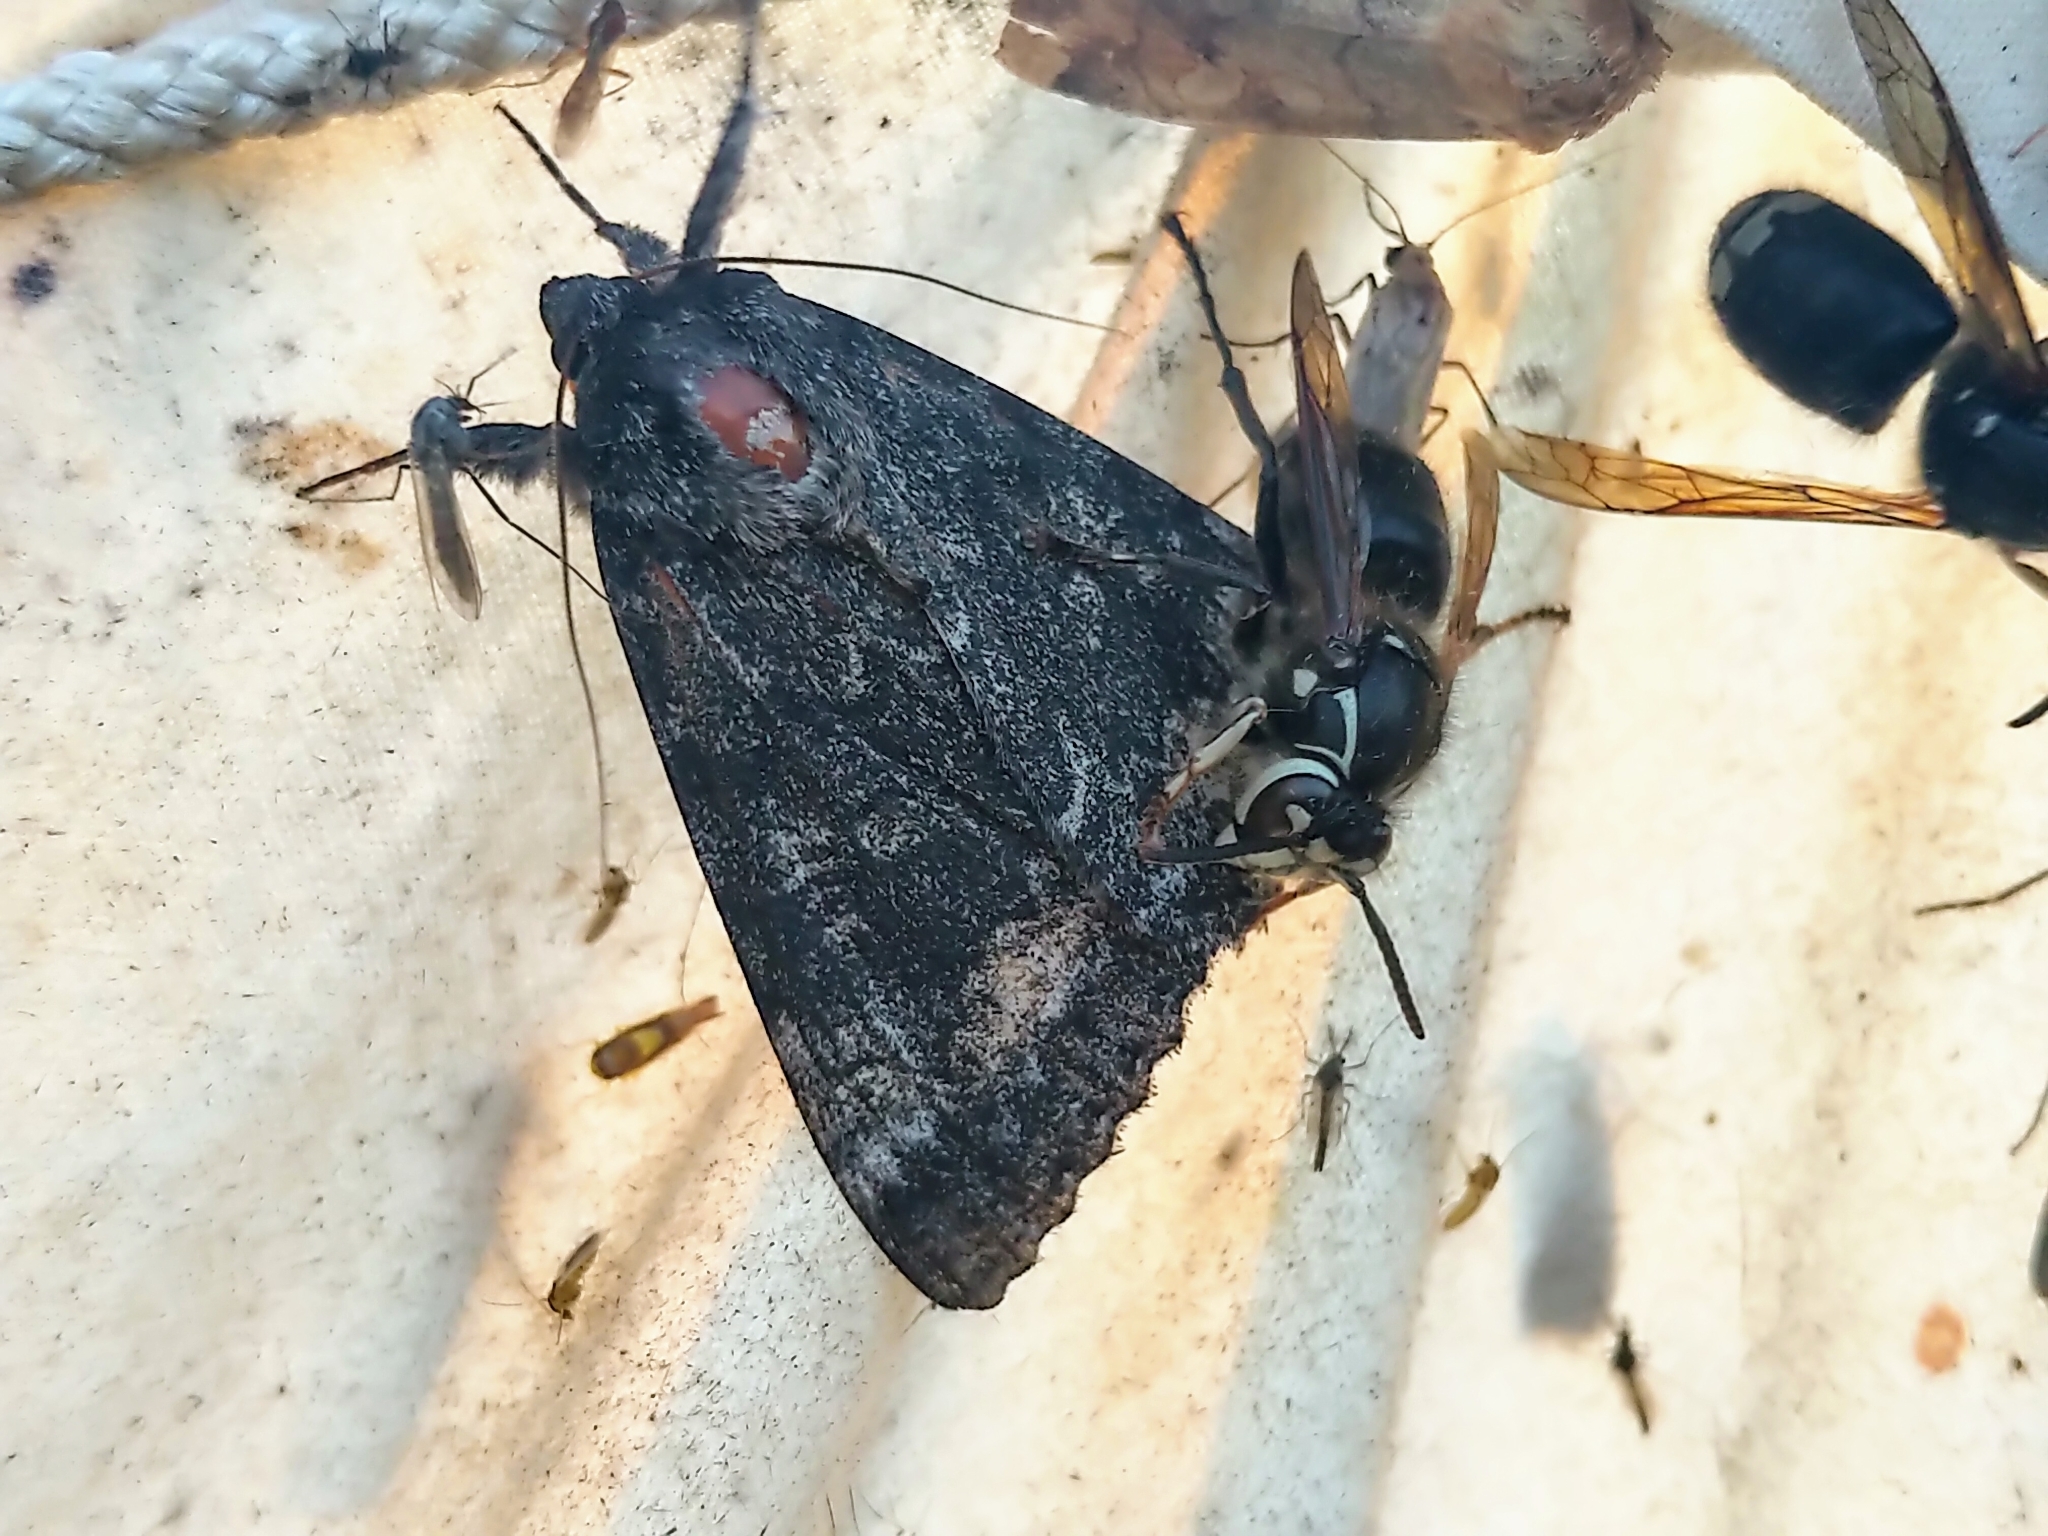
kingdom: Animalia
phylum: Arthropoda
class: Insecta
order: Lepidoptera
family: Erebidae
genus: Catocala
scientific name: Catocala briseis
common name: Briseis underwing
